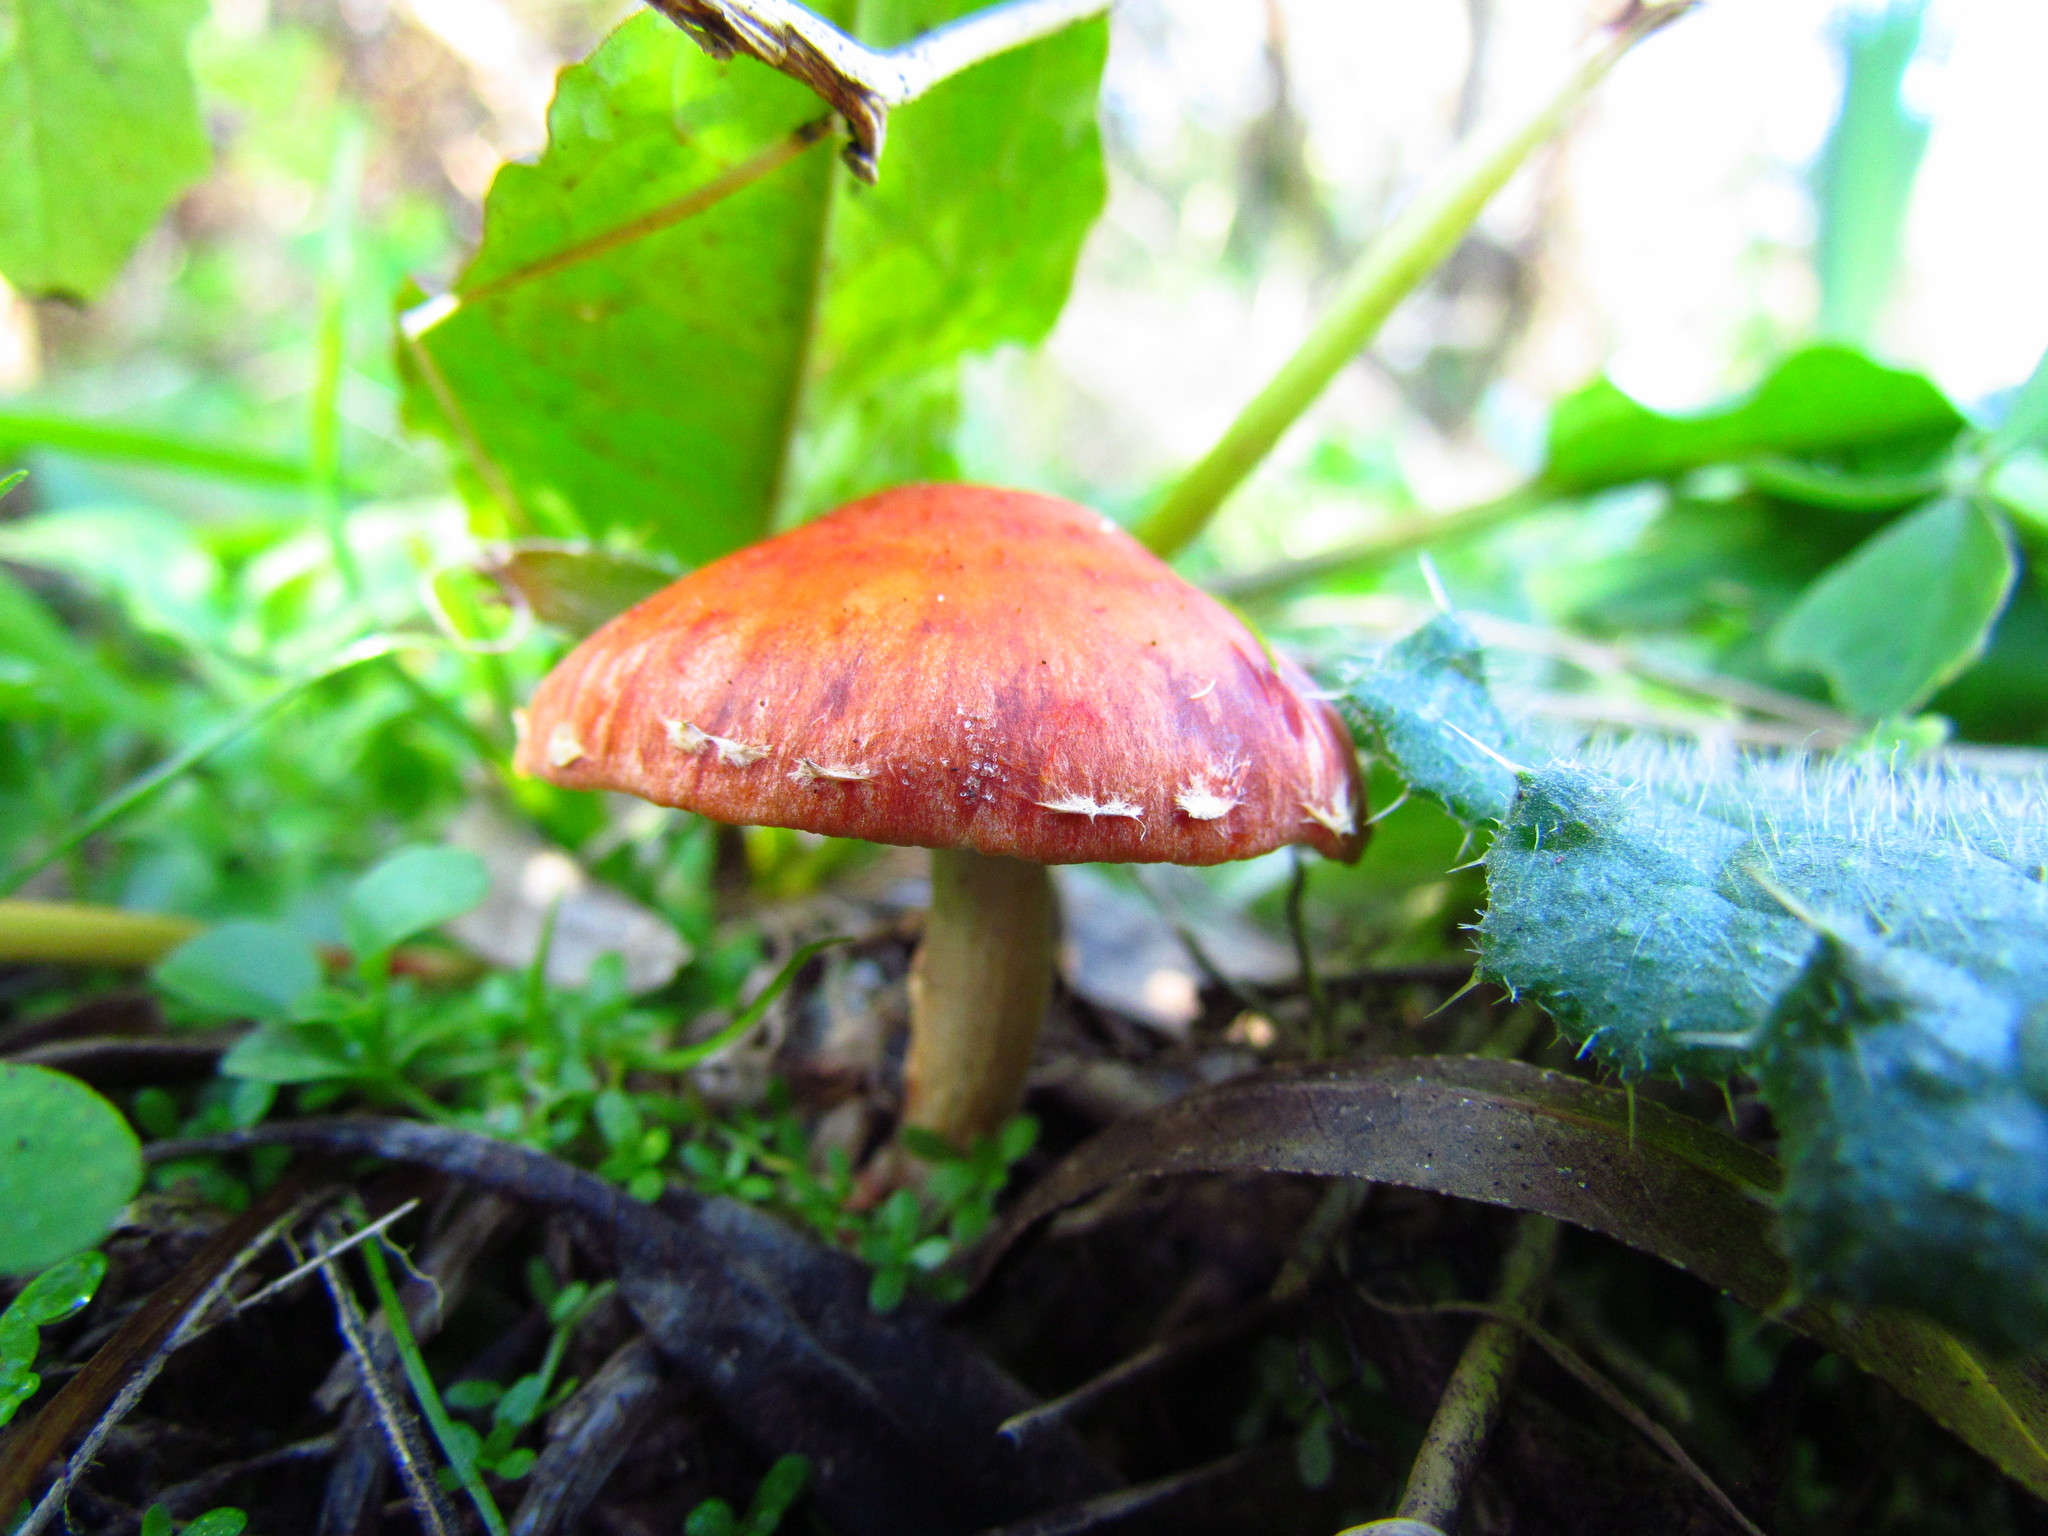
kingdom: Fungi
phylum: Basidiomycota
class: Agaricomycetes
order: Agaricales
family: Strophariaceae
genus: Leratiomyces
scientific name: Leratiomyces ceres
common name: Redlead roundhead
